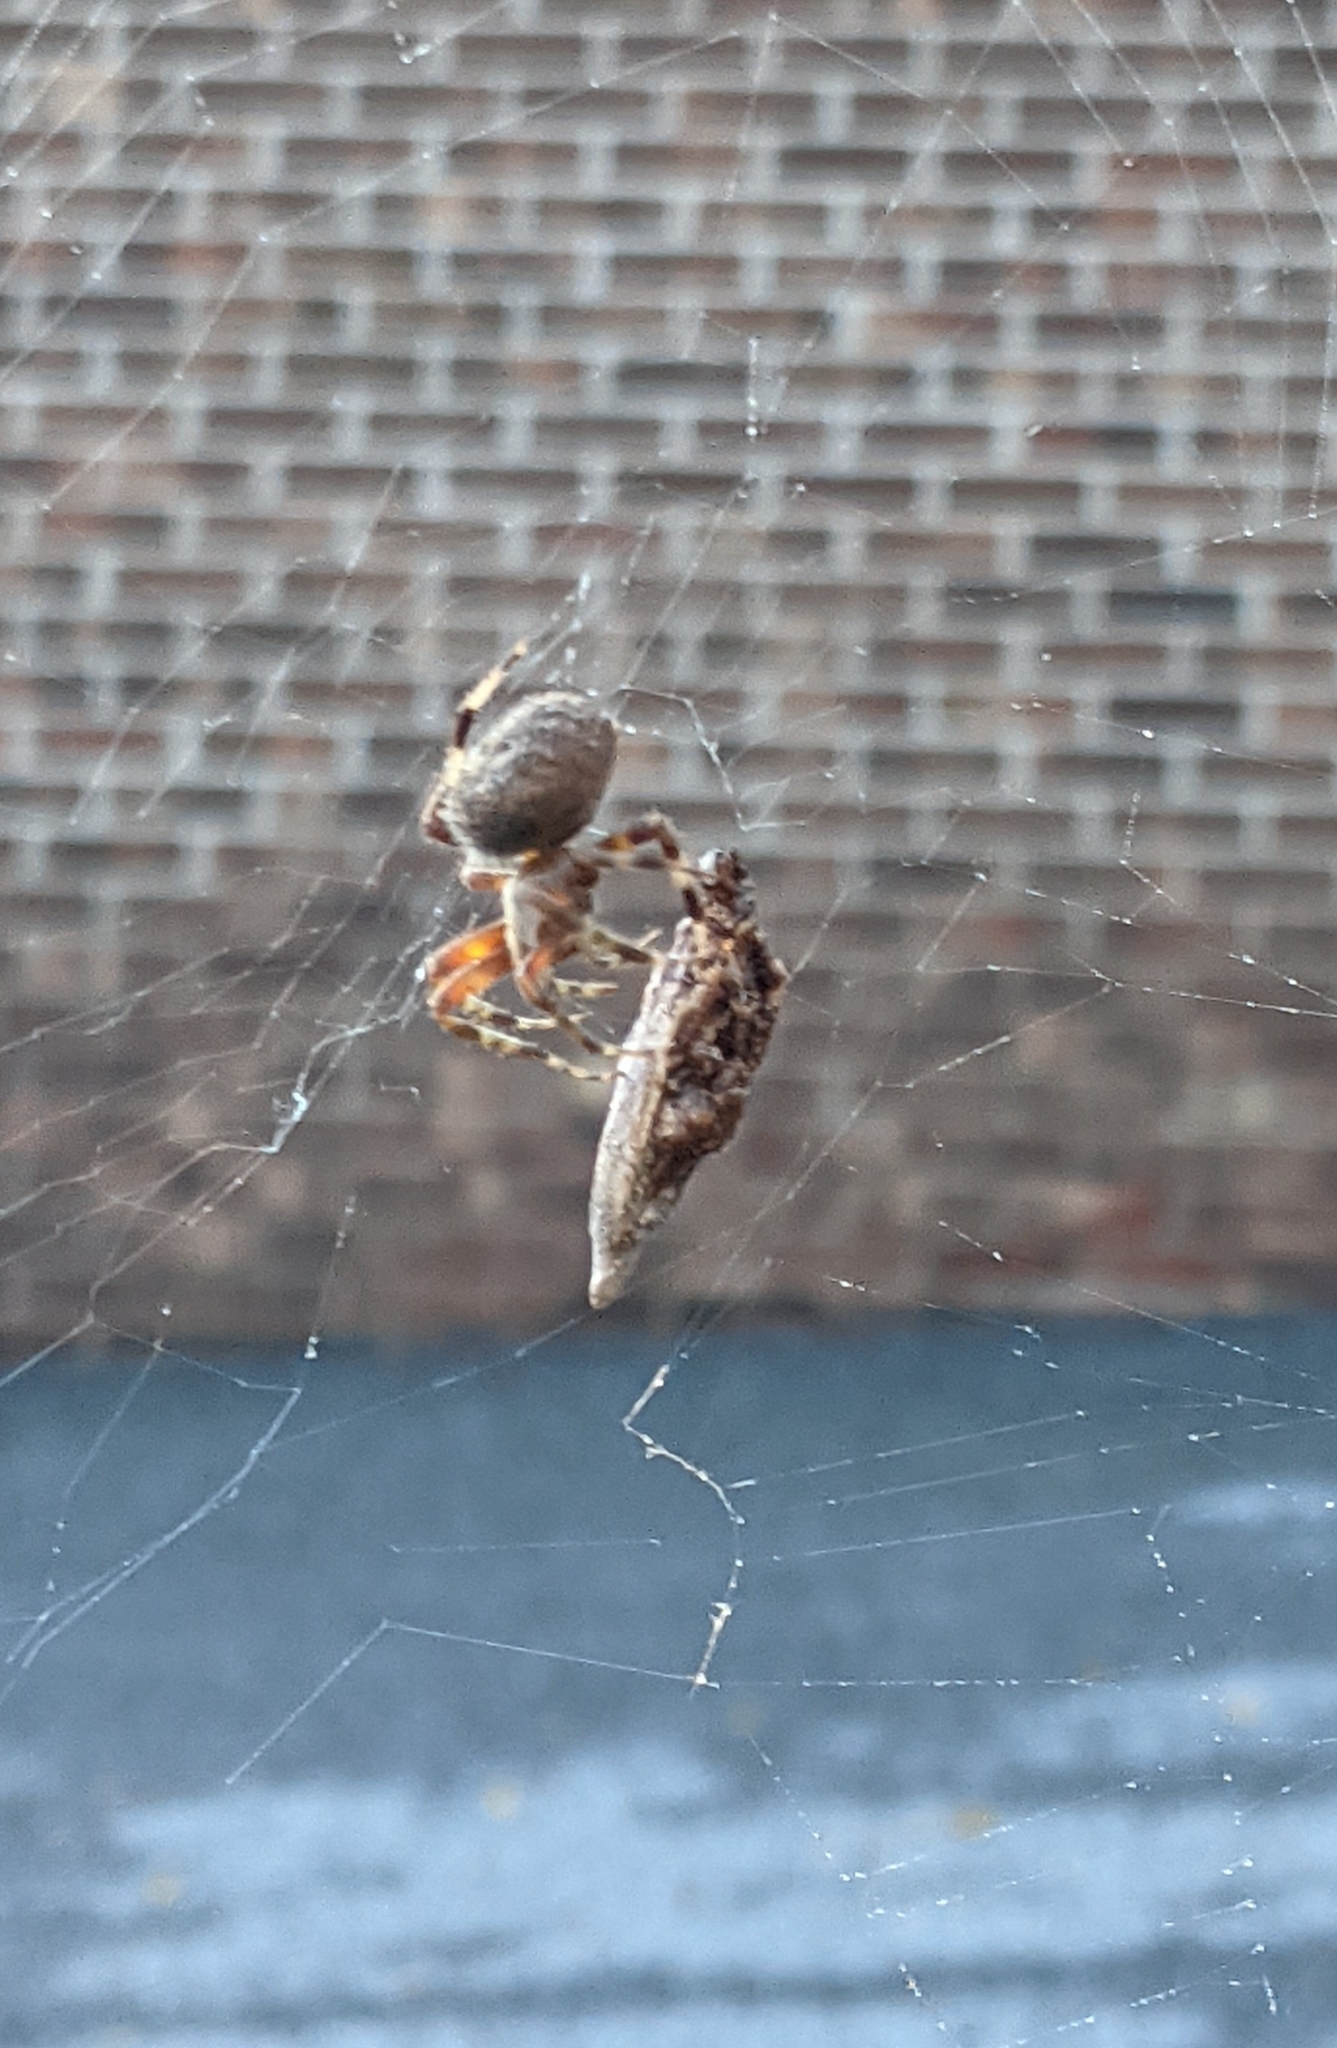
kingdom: Animalia
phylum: Arthropoda
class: Arachnida
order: Araneae
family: Araneidae
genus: Neoscona
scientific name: Neoscona crucifera
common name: Spotted orbweaver
